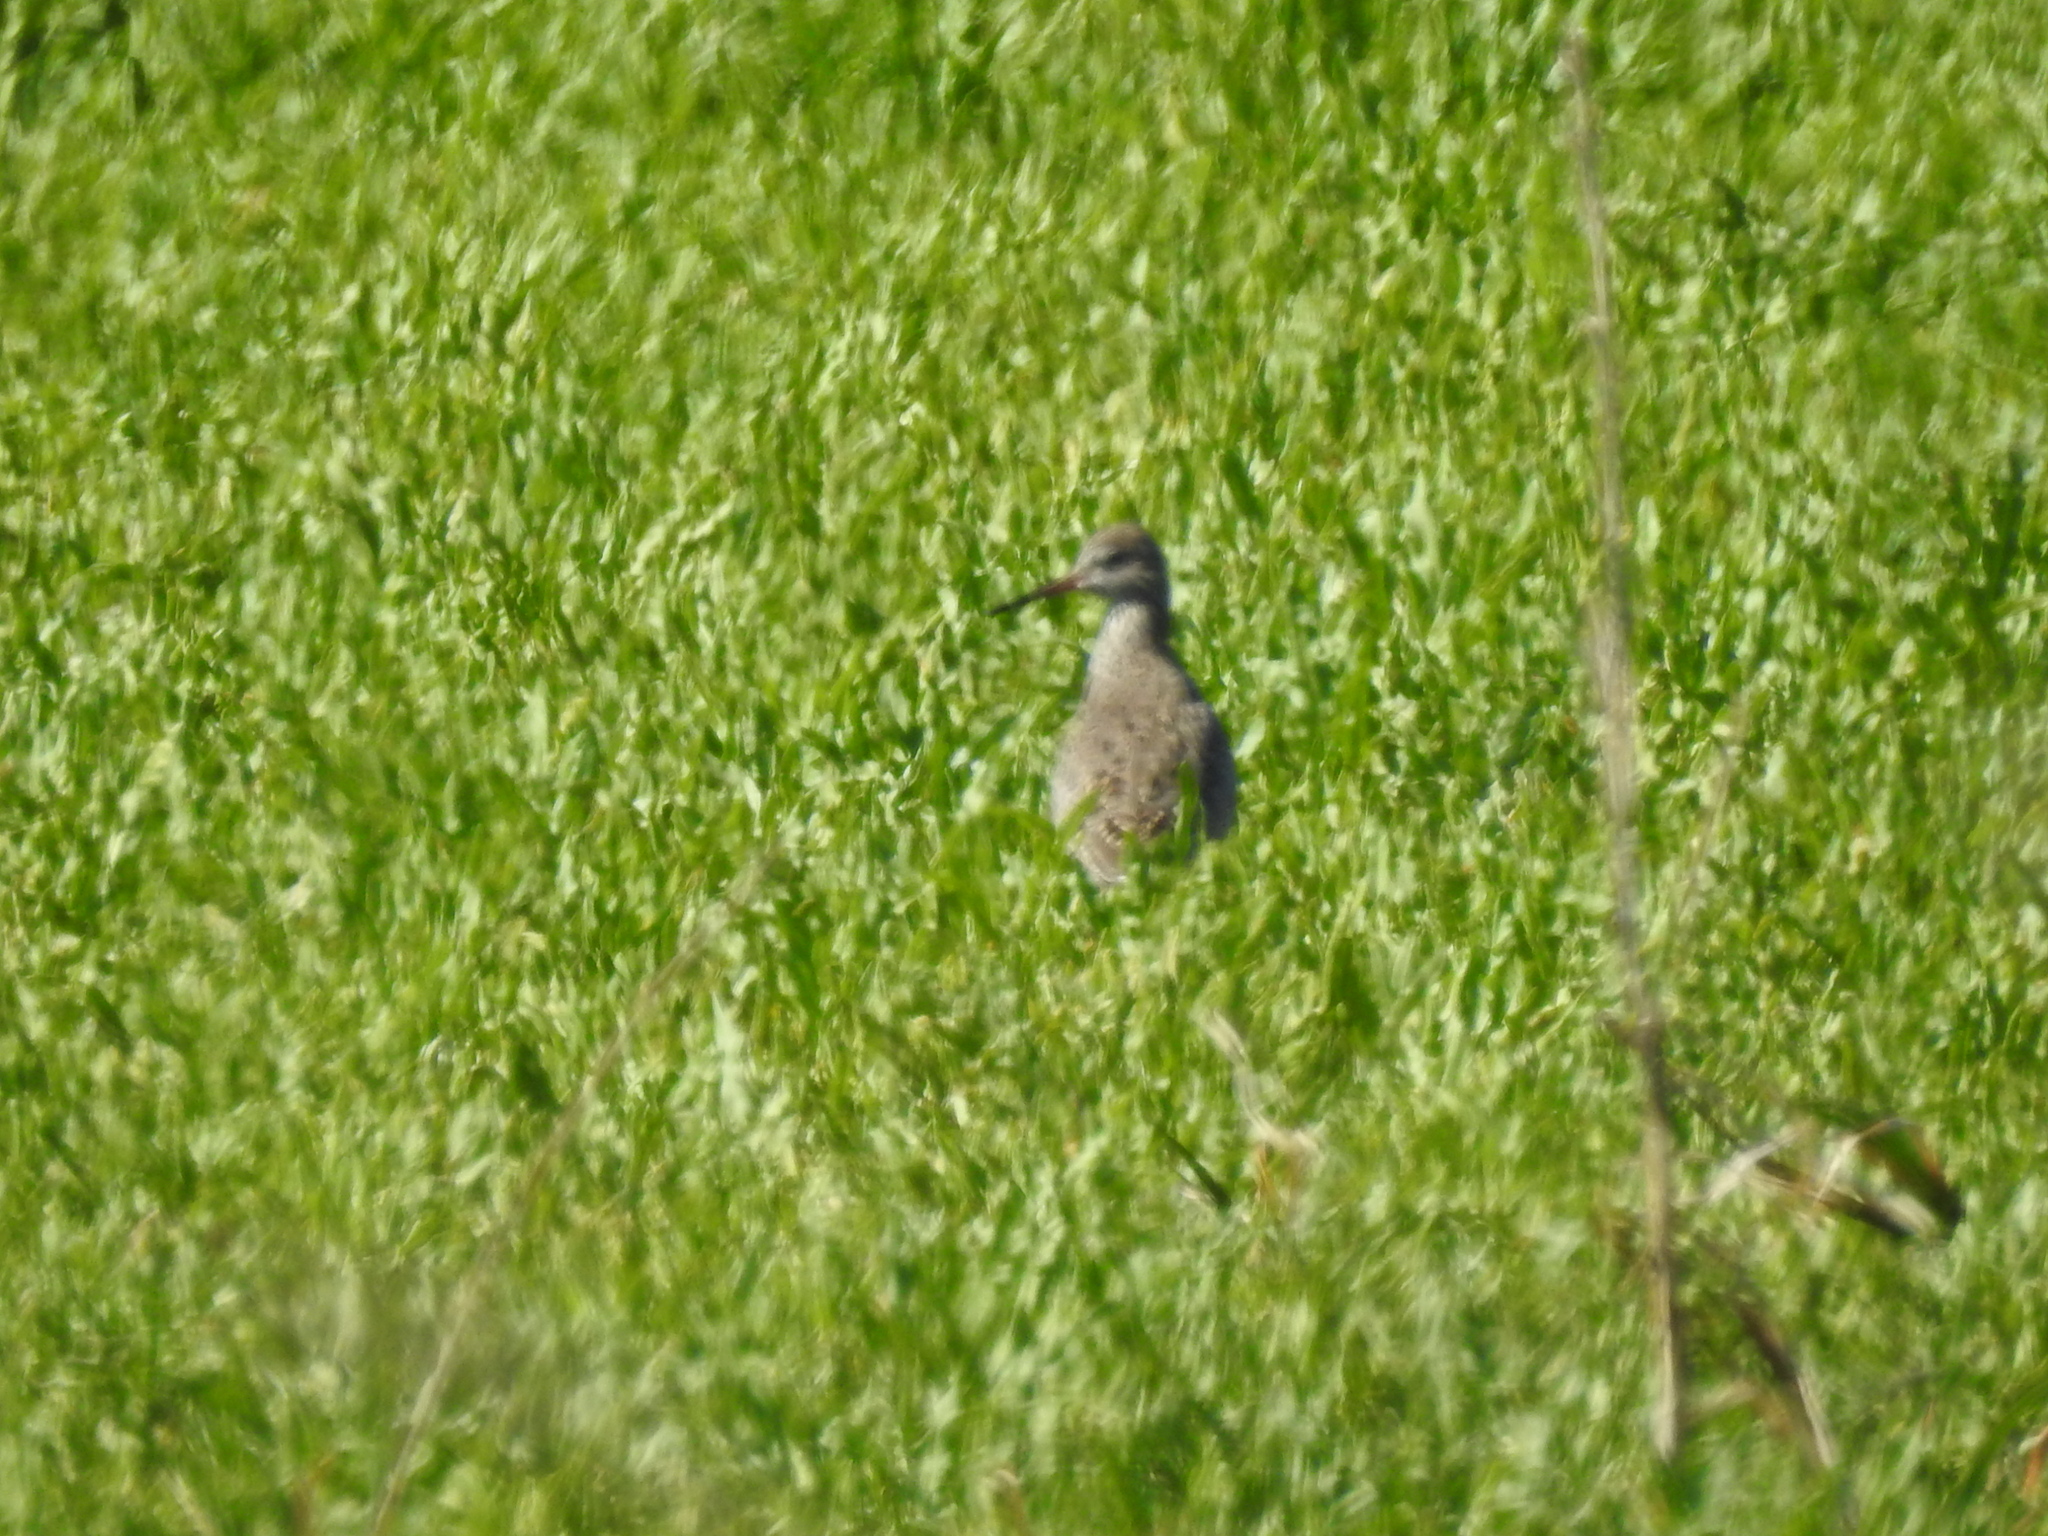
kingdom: Animalia
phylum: Chordata
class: Aves
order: Charadriiformes
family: Scolopacidae
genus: Tringa
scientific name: Tringa totanus
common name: Common redshank
